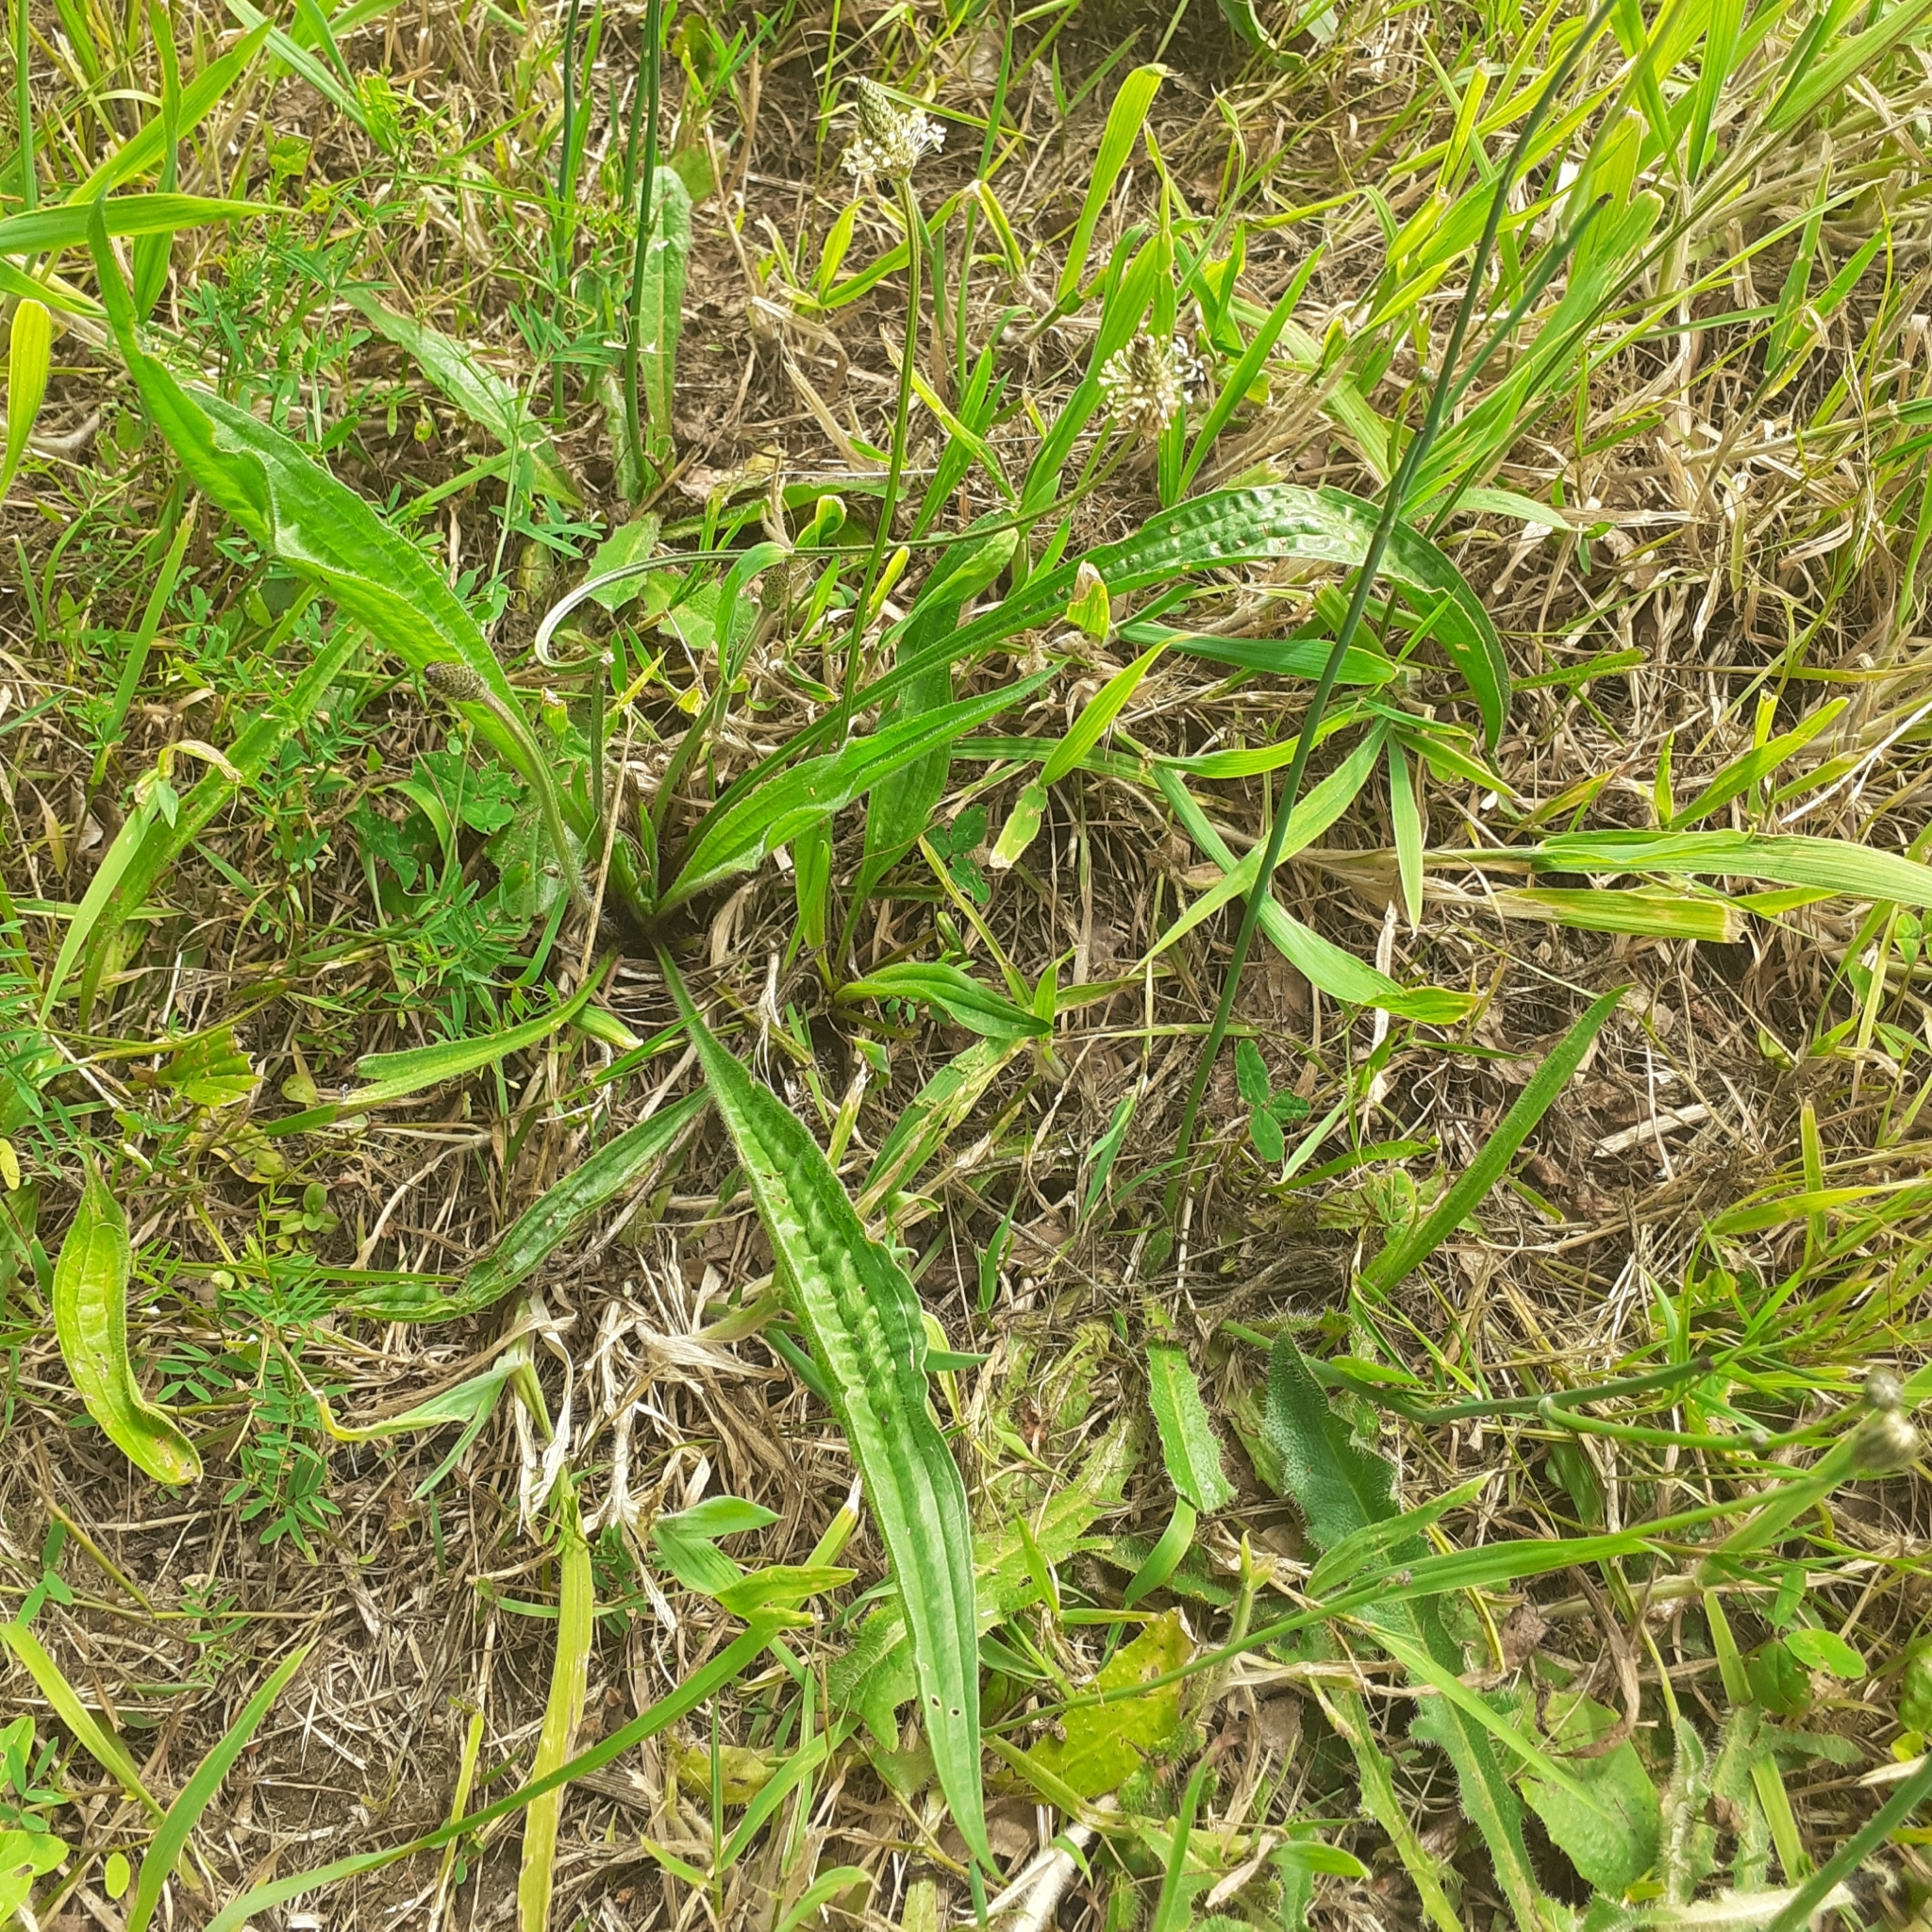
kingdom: Plantae
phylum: Tracheophyta
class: Magnoliopsida
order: Lamiales
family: Plantaginaceae
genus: Plantago
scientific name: Plantago lanceolata
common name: Ribwort plantain
